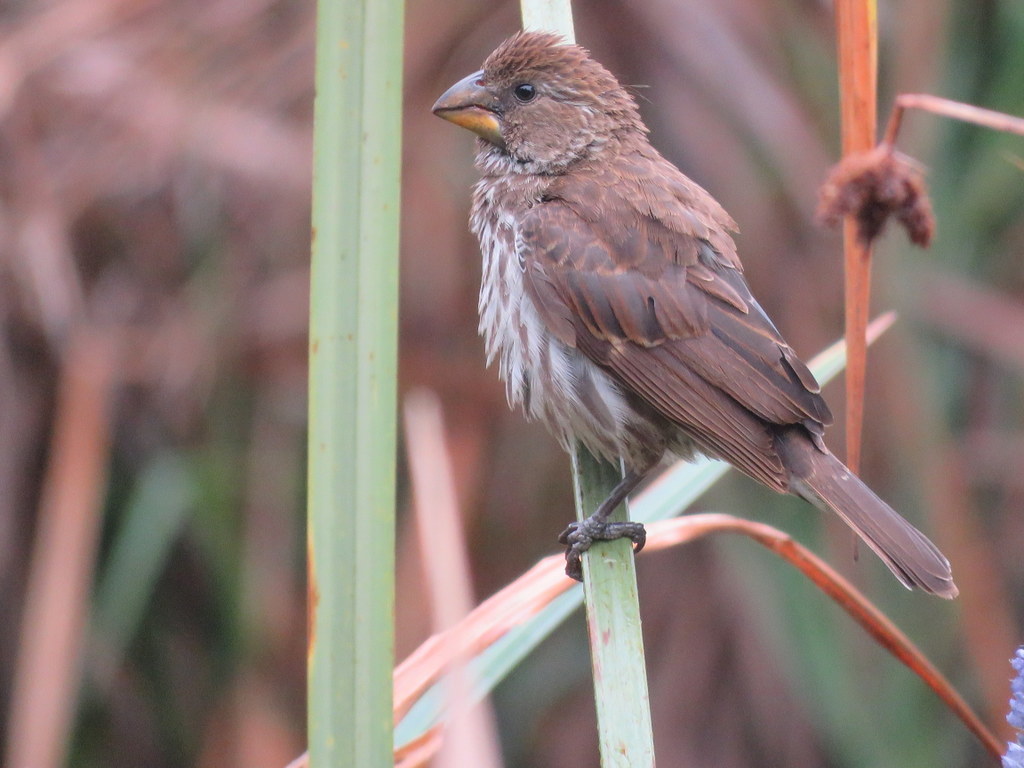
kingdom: Animalia
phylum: Chordata
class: Aves
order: Passeriformes
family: Ploceidae
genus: Amblyospiza
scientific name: Amblyospiza albifrons
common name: Thick-billed weaver
